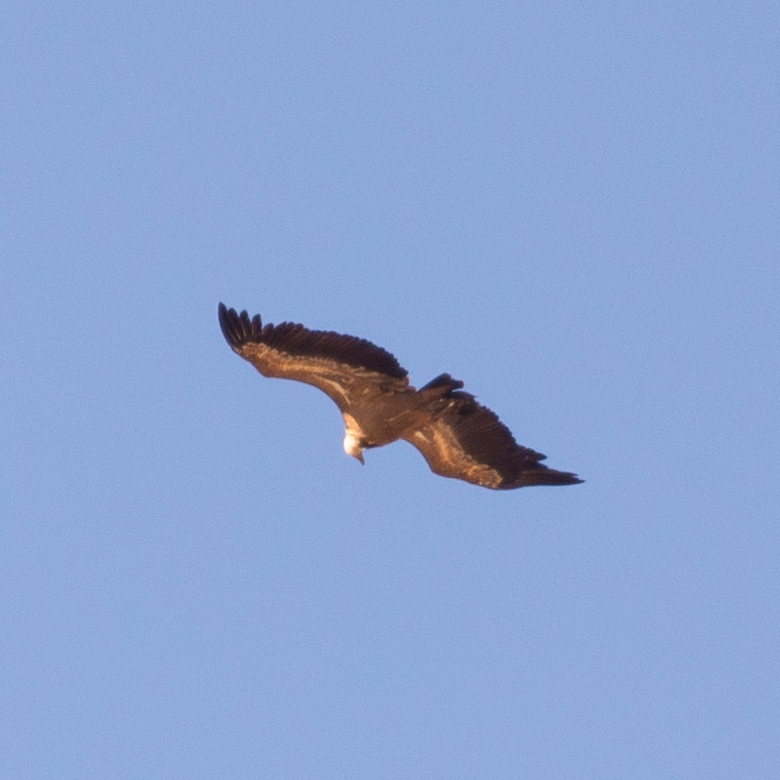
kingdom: Animalia
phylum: Chordata
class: Aves
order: Accipitriformes
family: Accipitridae
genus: Gyps
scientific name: Gyps fulvus
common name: Griffon vulture
